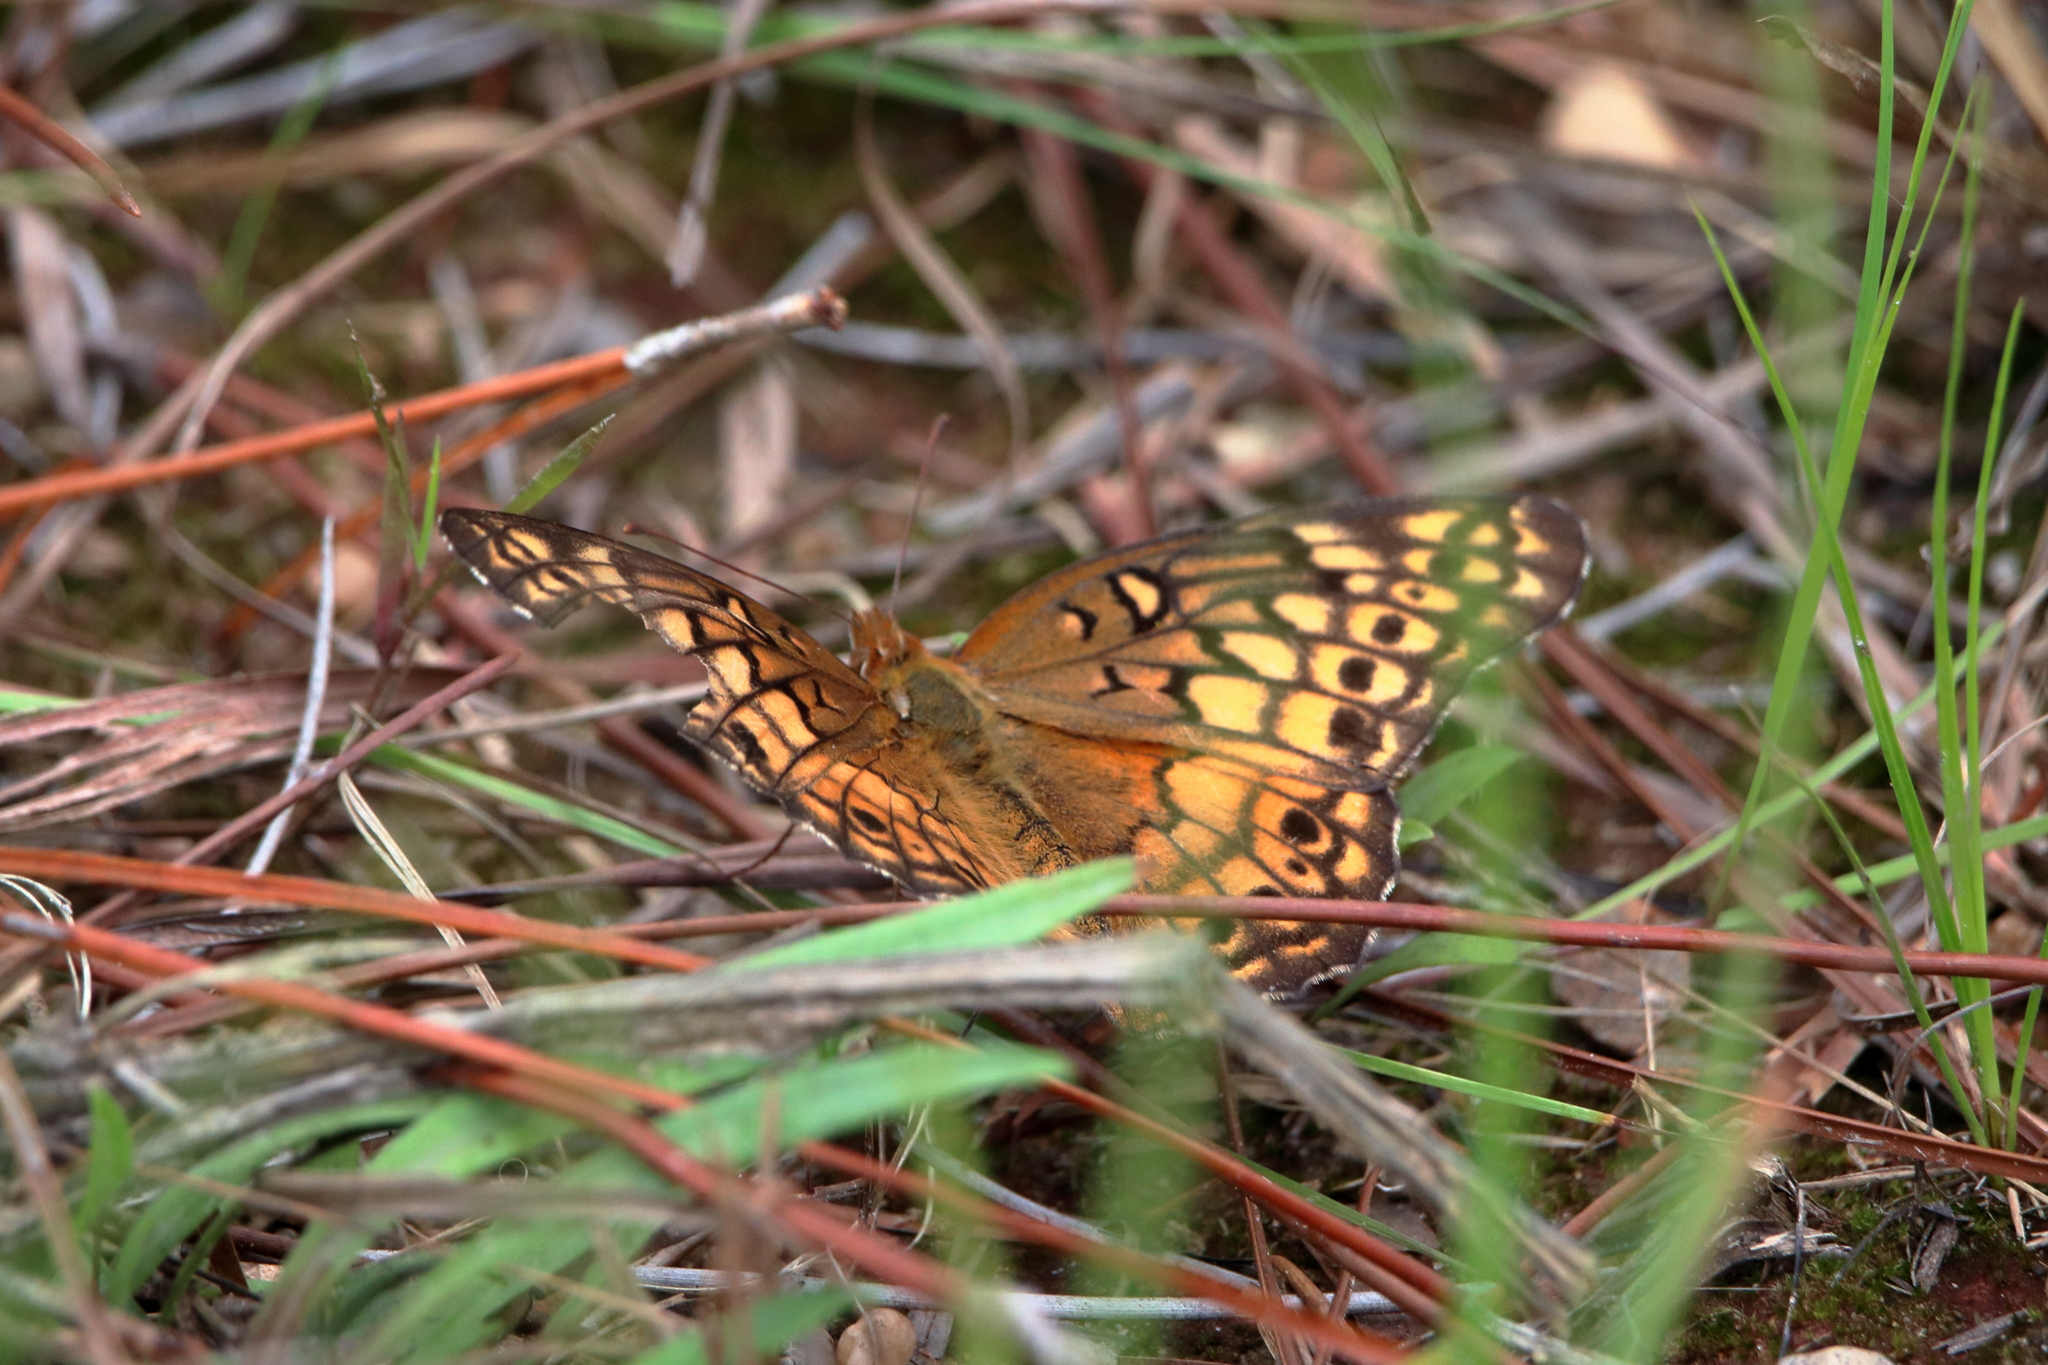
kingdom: Animalia
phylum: Arthropoda
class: Insecta
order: Lepidoptera
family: Nymphalidae
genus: Euptoieta
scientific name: Euptoieta claudia
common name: Variegated fritillary
